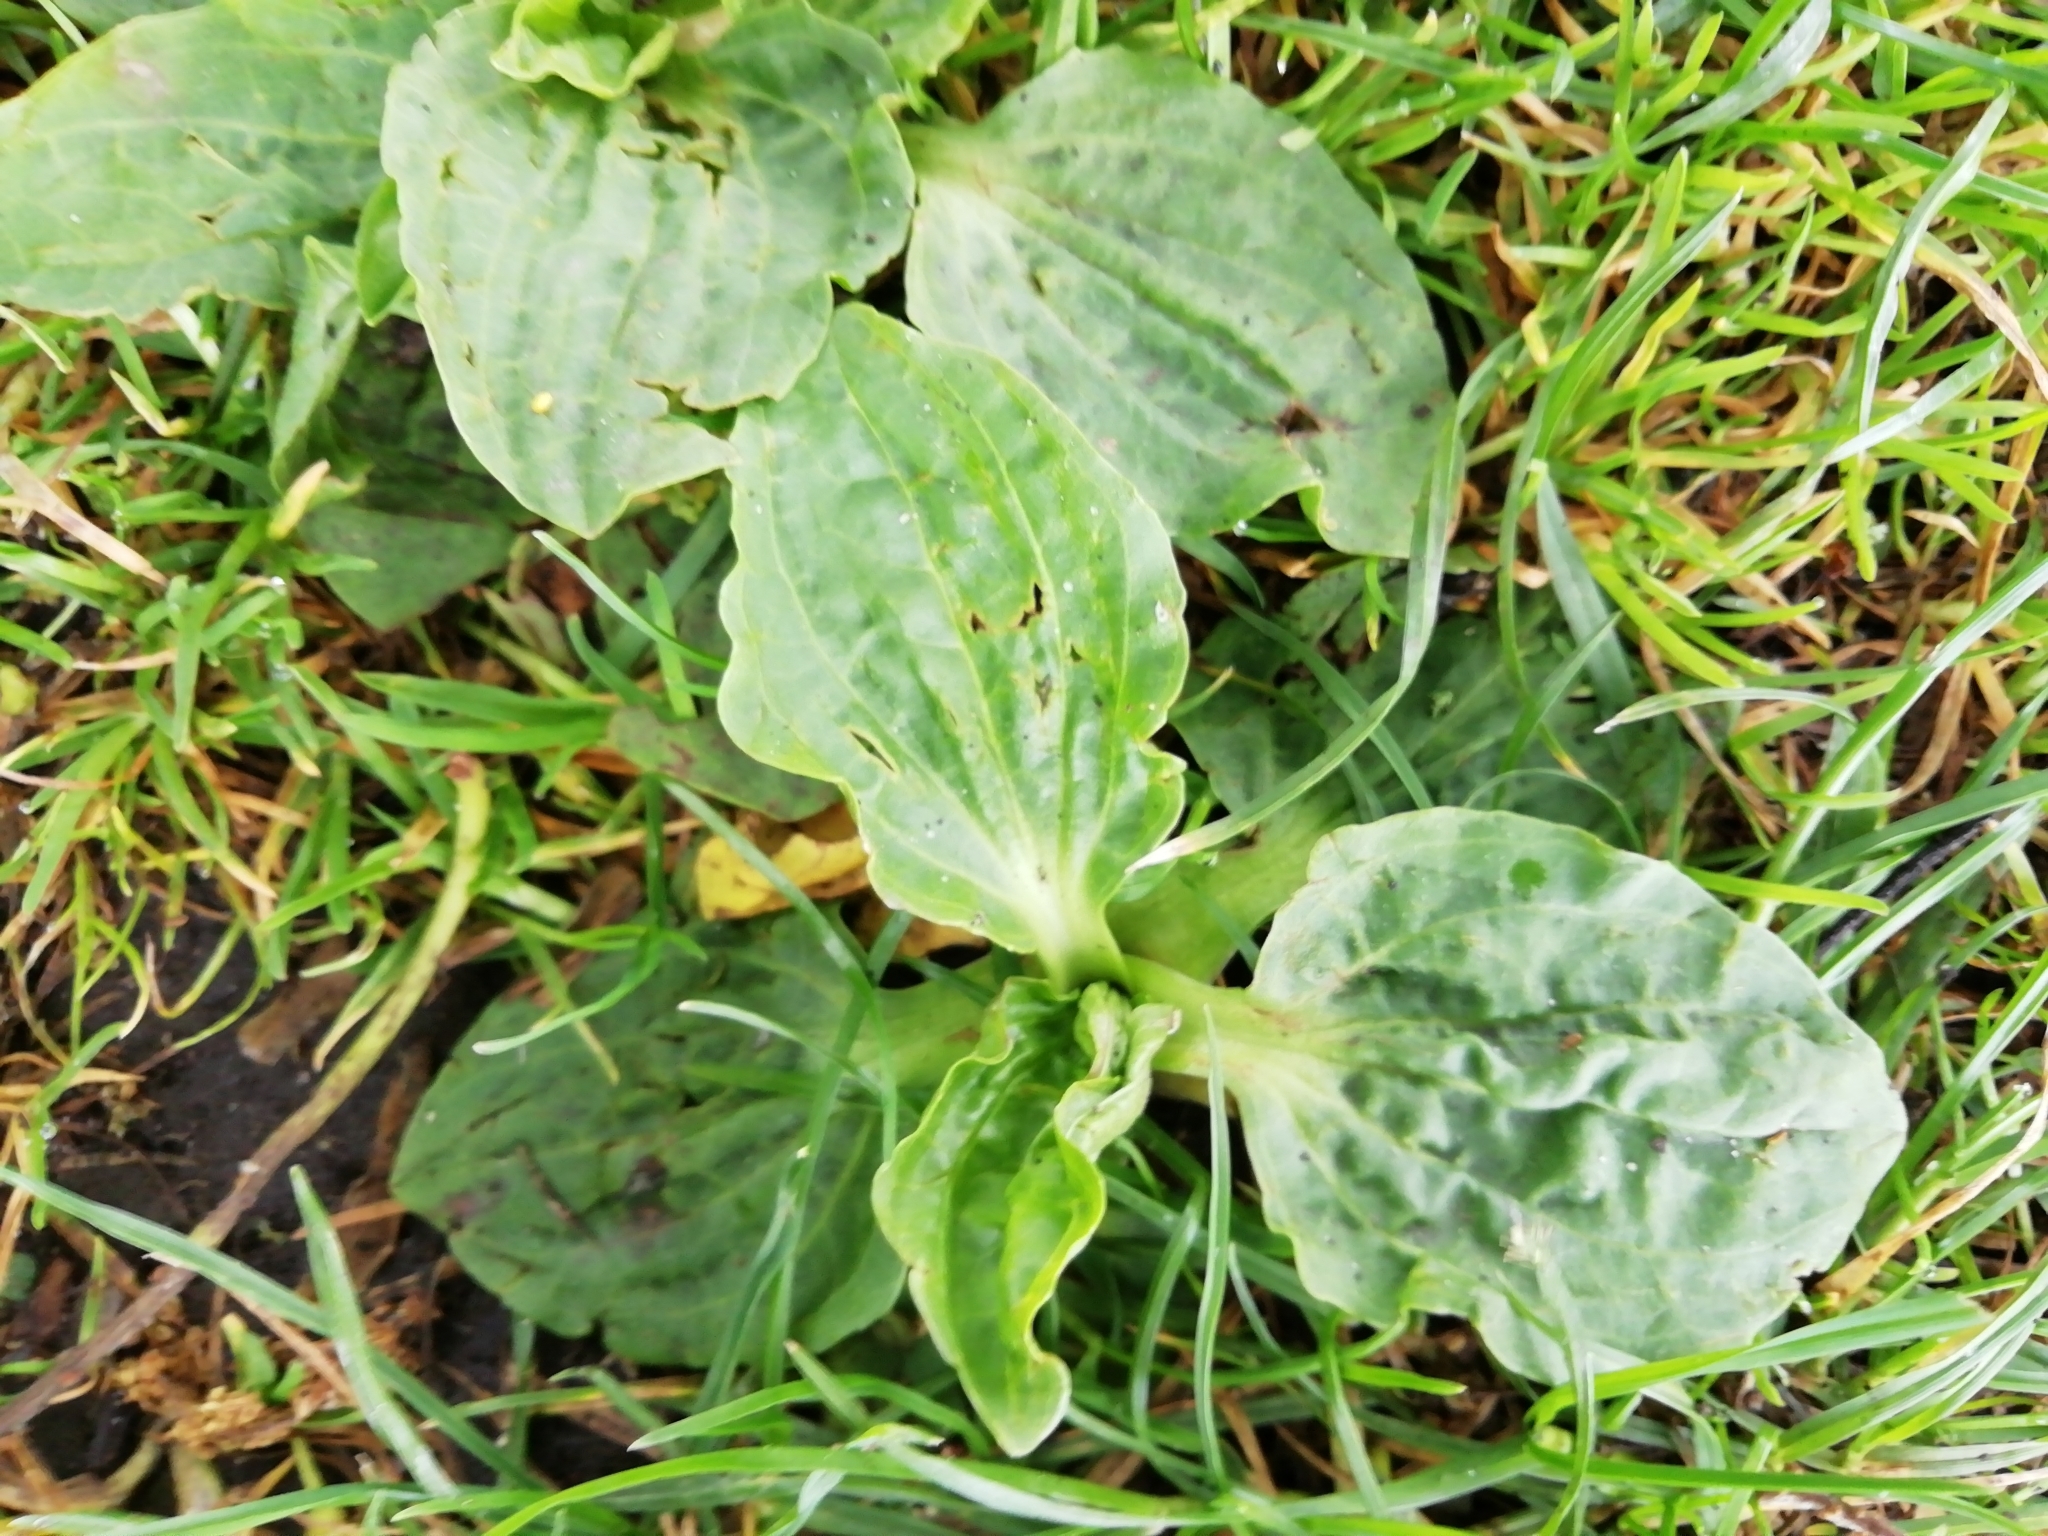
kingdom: Plantae
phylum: Tracheophyta
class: Magnoliopsida
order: Lamiales
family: Plantaginaceae
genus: Plantago
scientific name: Plantago major
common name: Common plantain
